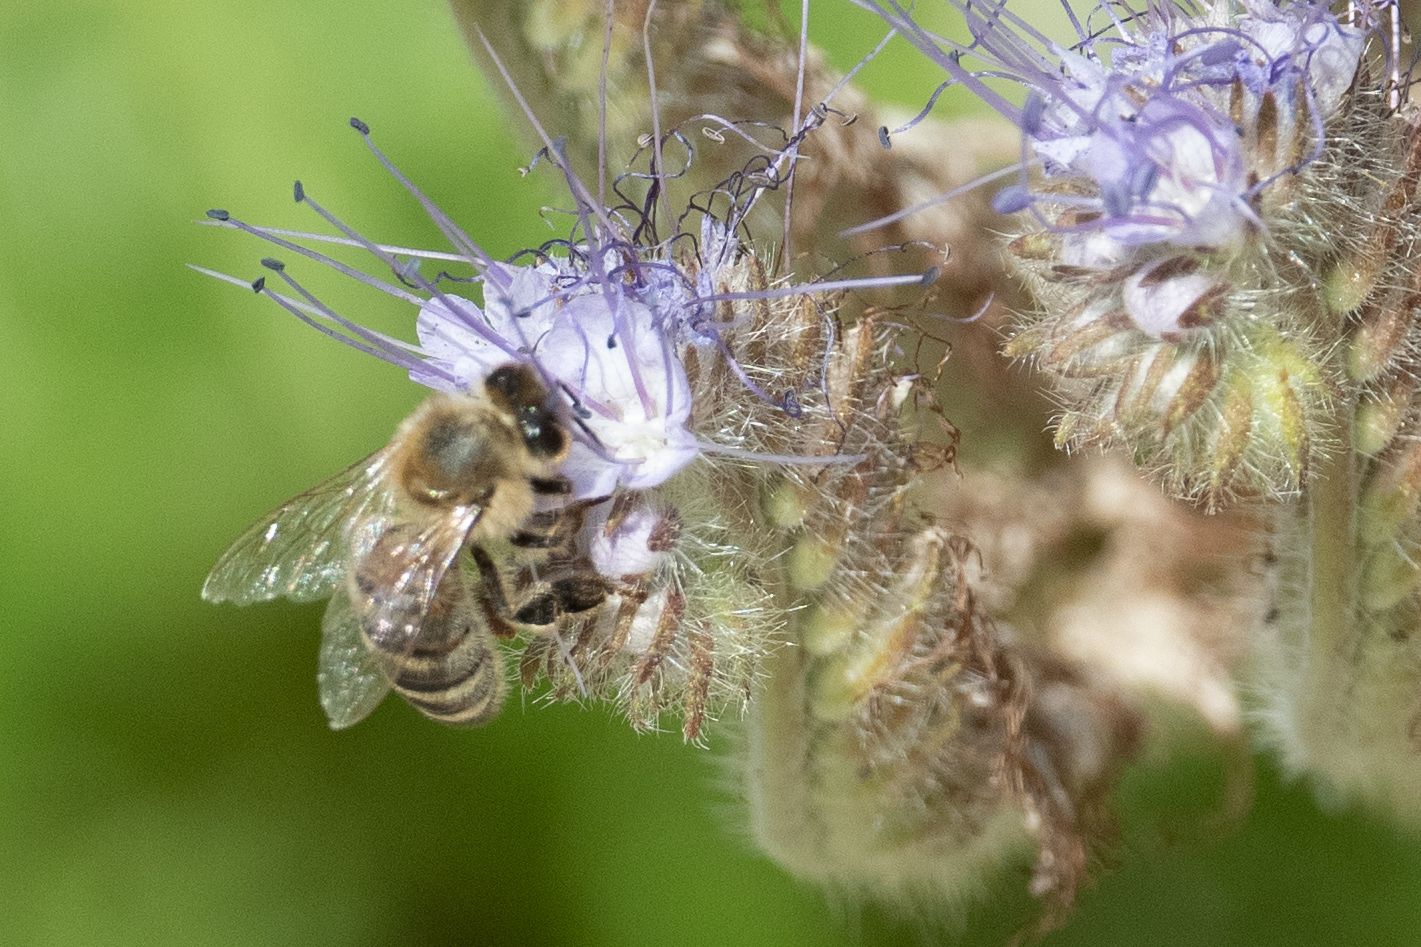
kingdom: Animalia
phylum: Arthropoda
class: Insecta
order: Hymenoptera
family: Apidae
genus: Apis
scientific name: Apis mellifera
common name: Honey bee
